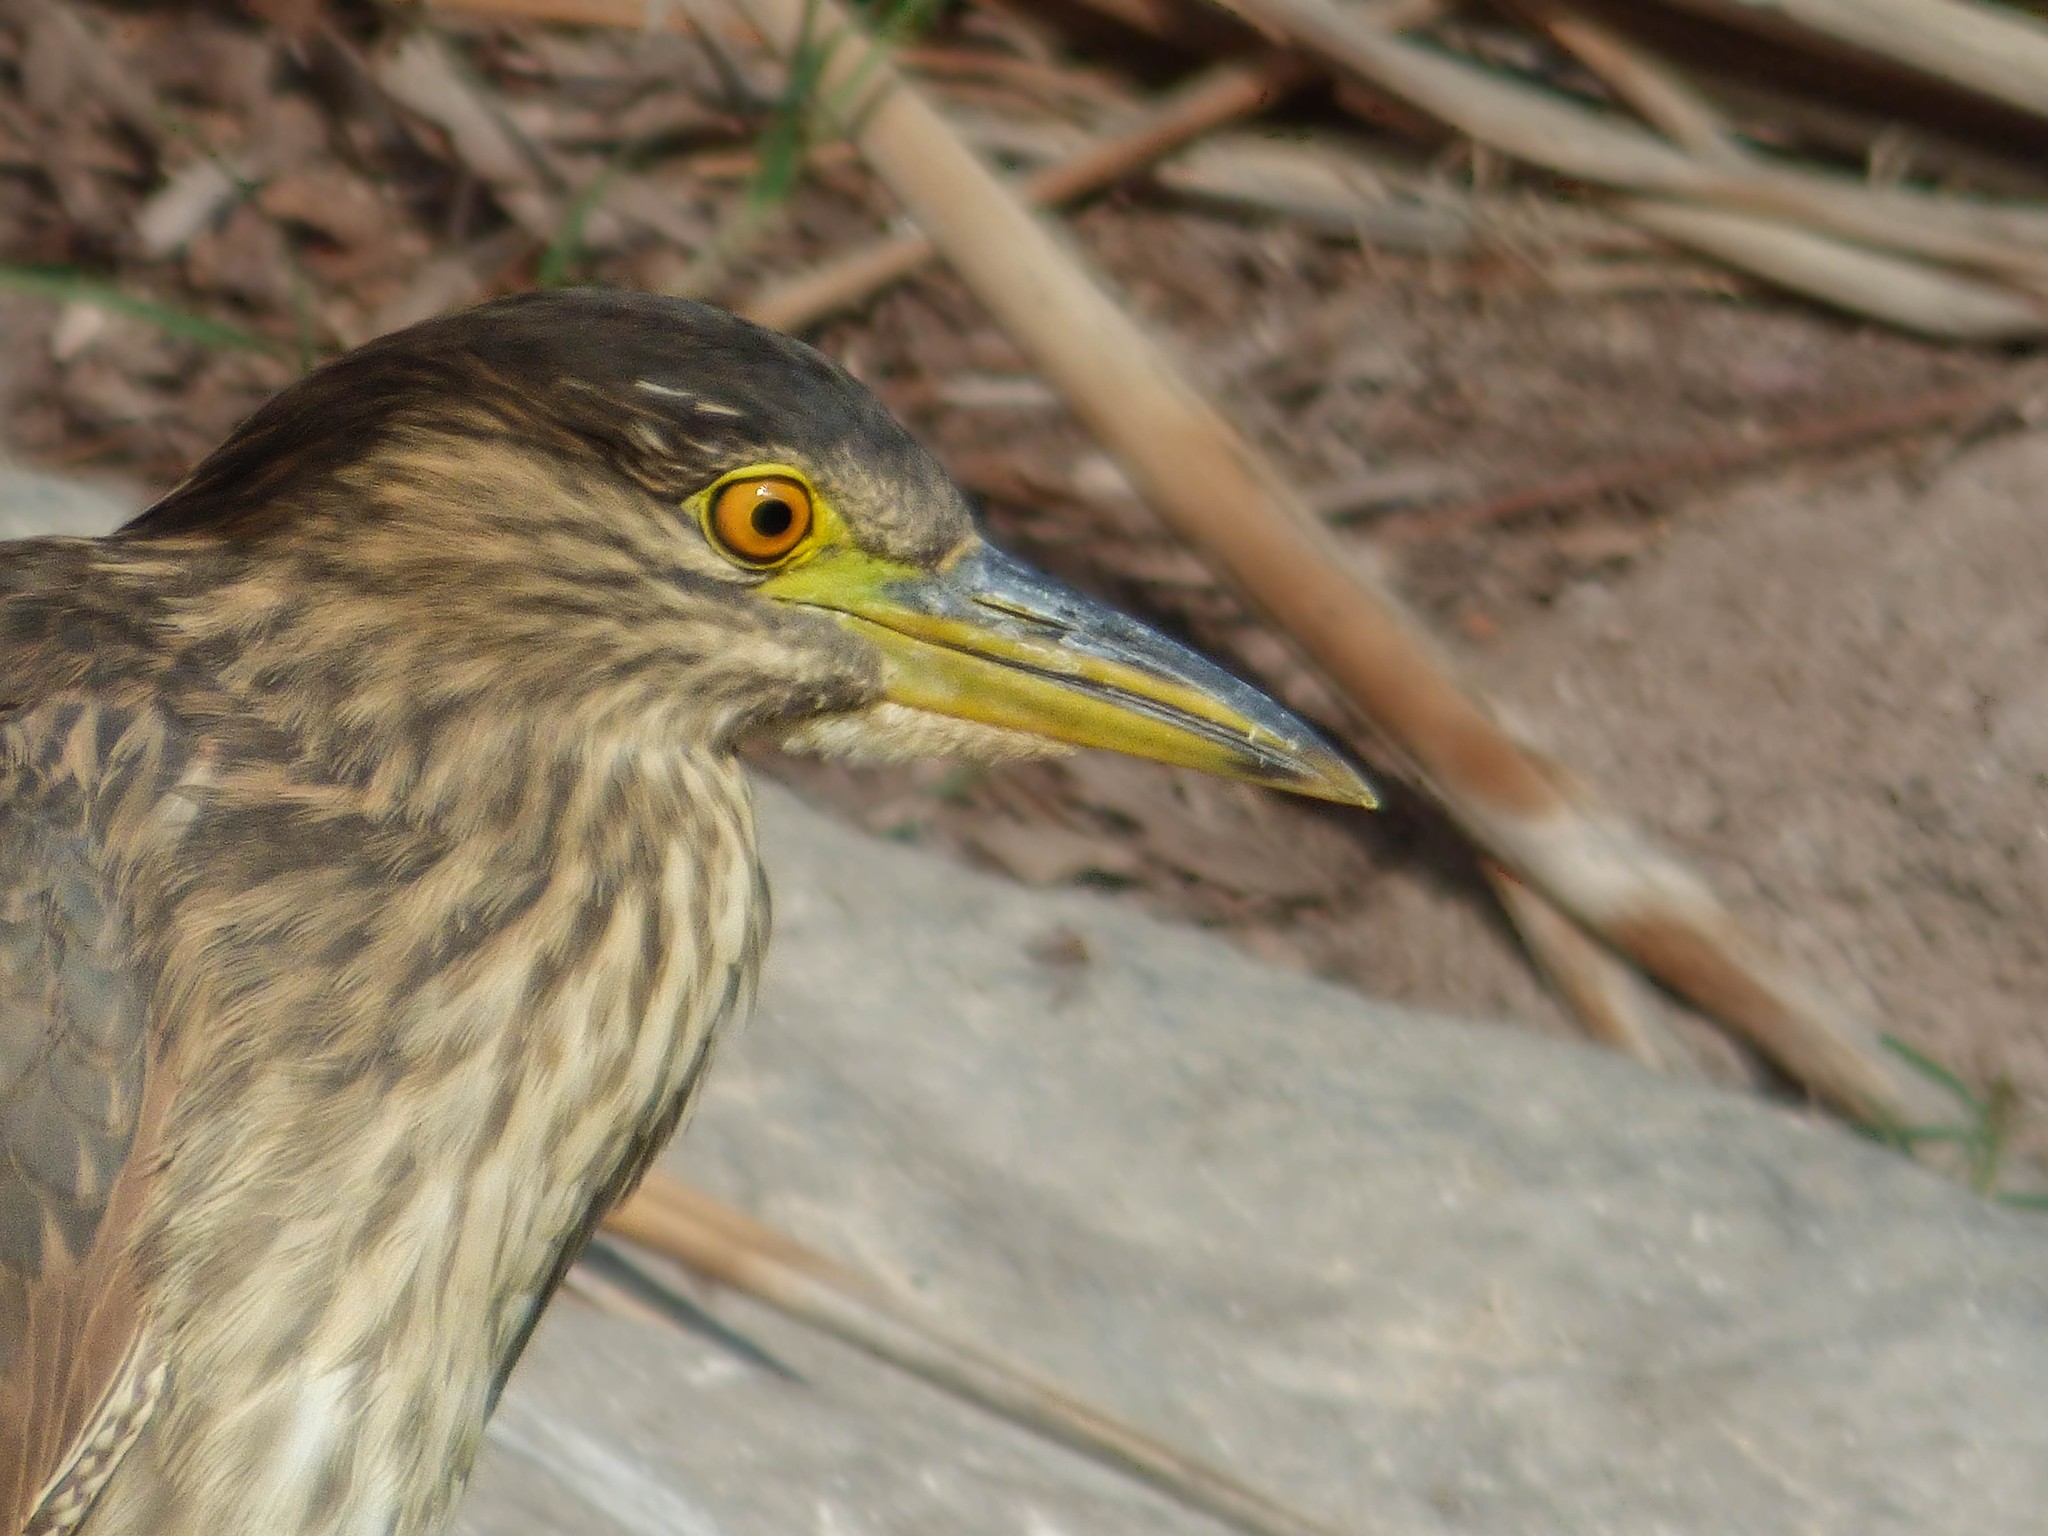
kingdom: Animalia
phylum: Chordata
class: Aves
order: Pelecaniformes
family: Ardeidae
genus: Nycticorax
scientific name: Nycticorax nycticorax
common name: Black-crowned night heron
